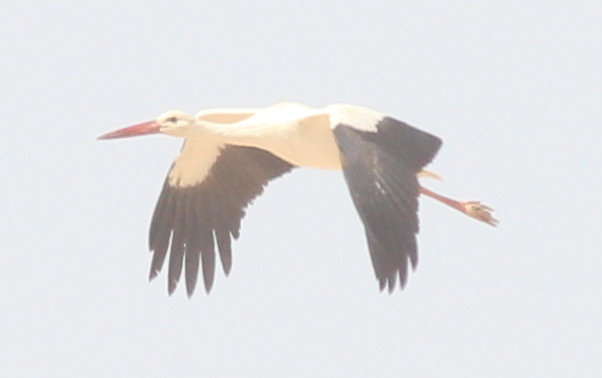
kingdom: Animalia
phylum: Chordata
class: Aves
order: Ciconiiformes
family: Ciconiidae
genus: Ciconia
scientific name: Ciconia ciconia
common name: White stork
